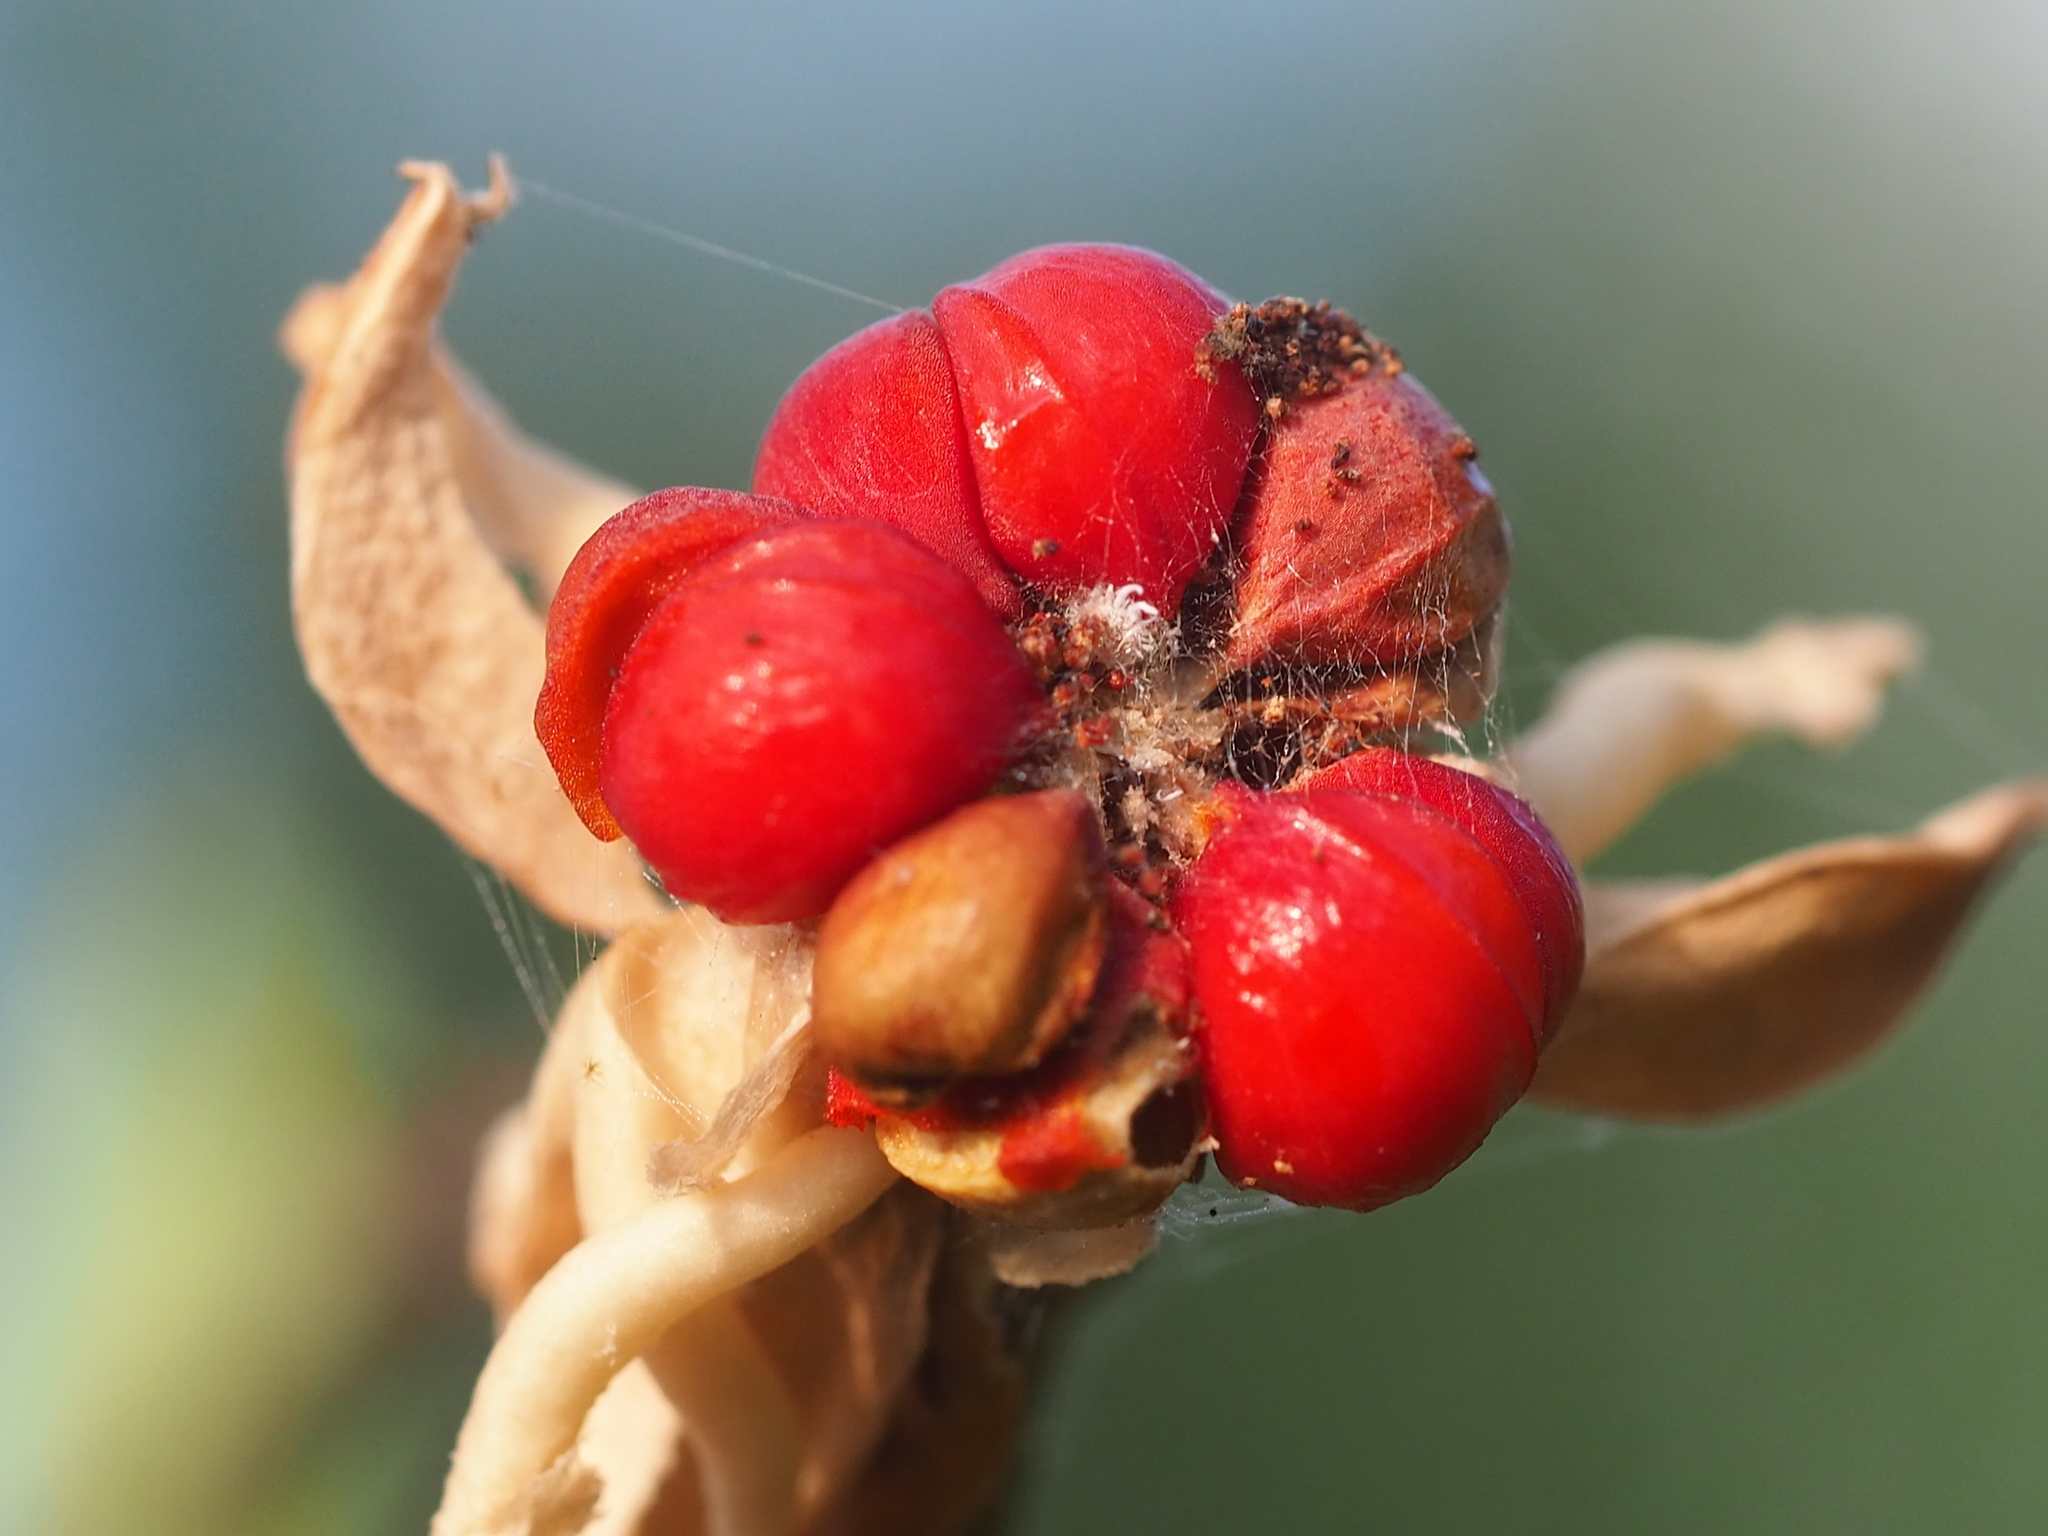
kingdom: Plantae
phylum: Tracheophyta
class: Magnoliopsida
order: Malpighiales
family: Phyllanthaceae
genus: Glochidion
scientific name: Glochidion philippicum
